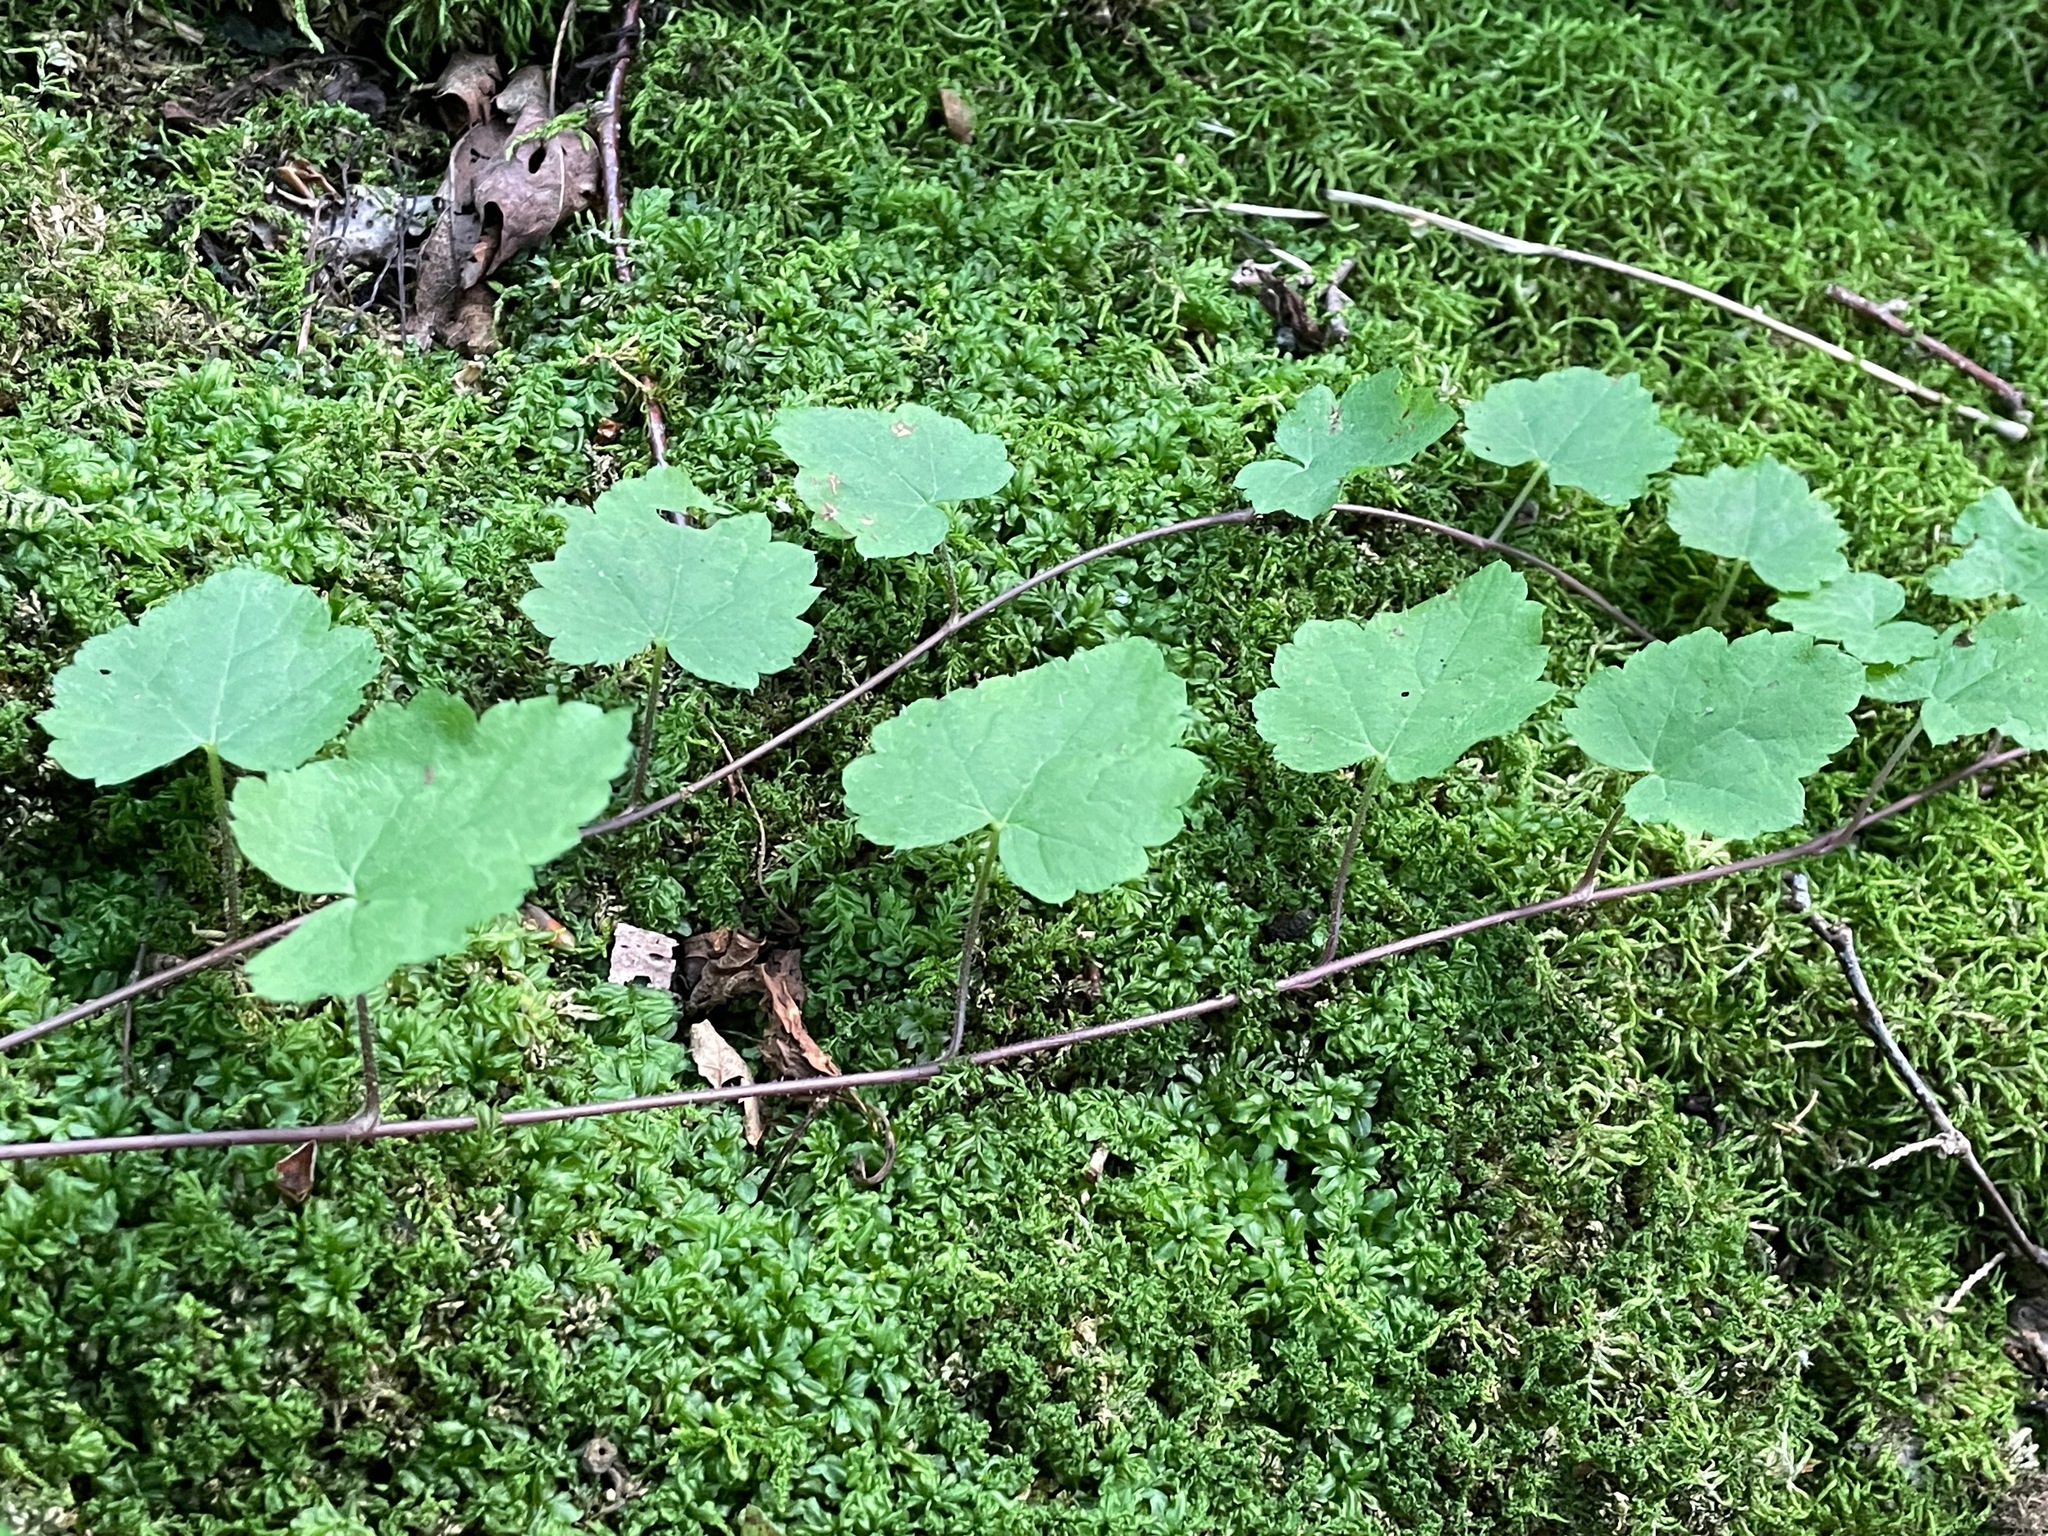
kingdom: Plantae
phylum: Tracheophyta
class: Magnoliopsida
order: Saxifragales
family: Saxifragaceae
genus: Tiarella
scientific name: Tiarella stolonifera
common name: Stoloniferous foamflower
